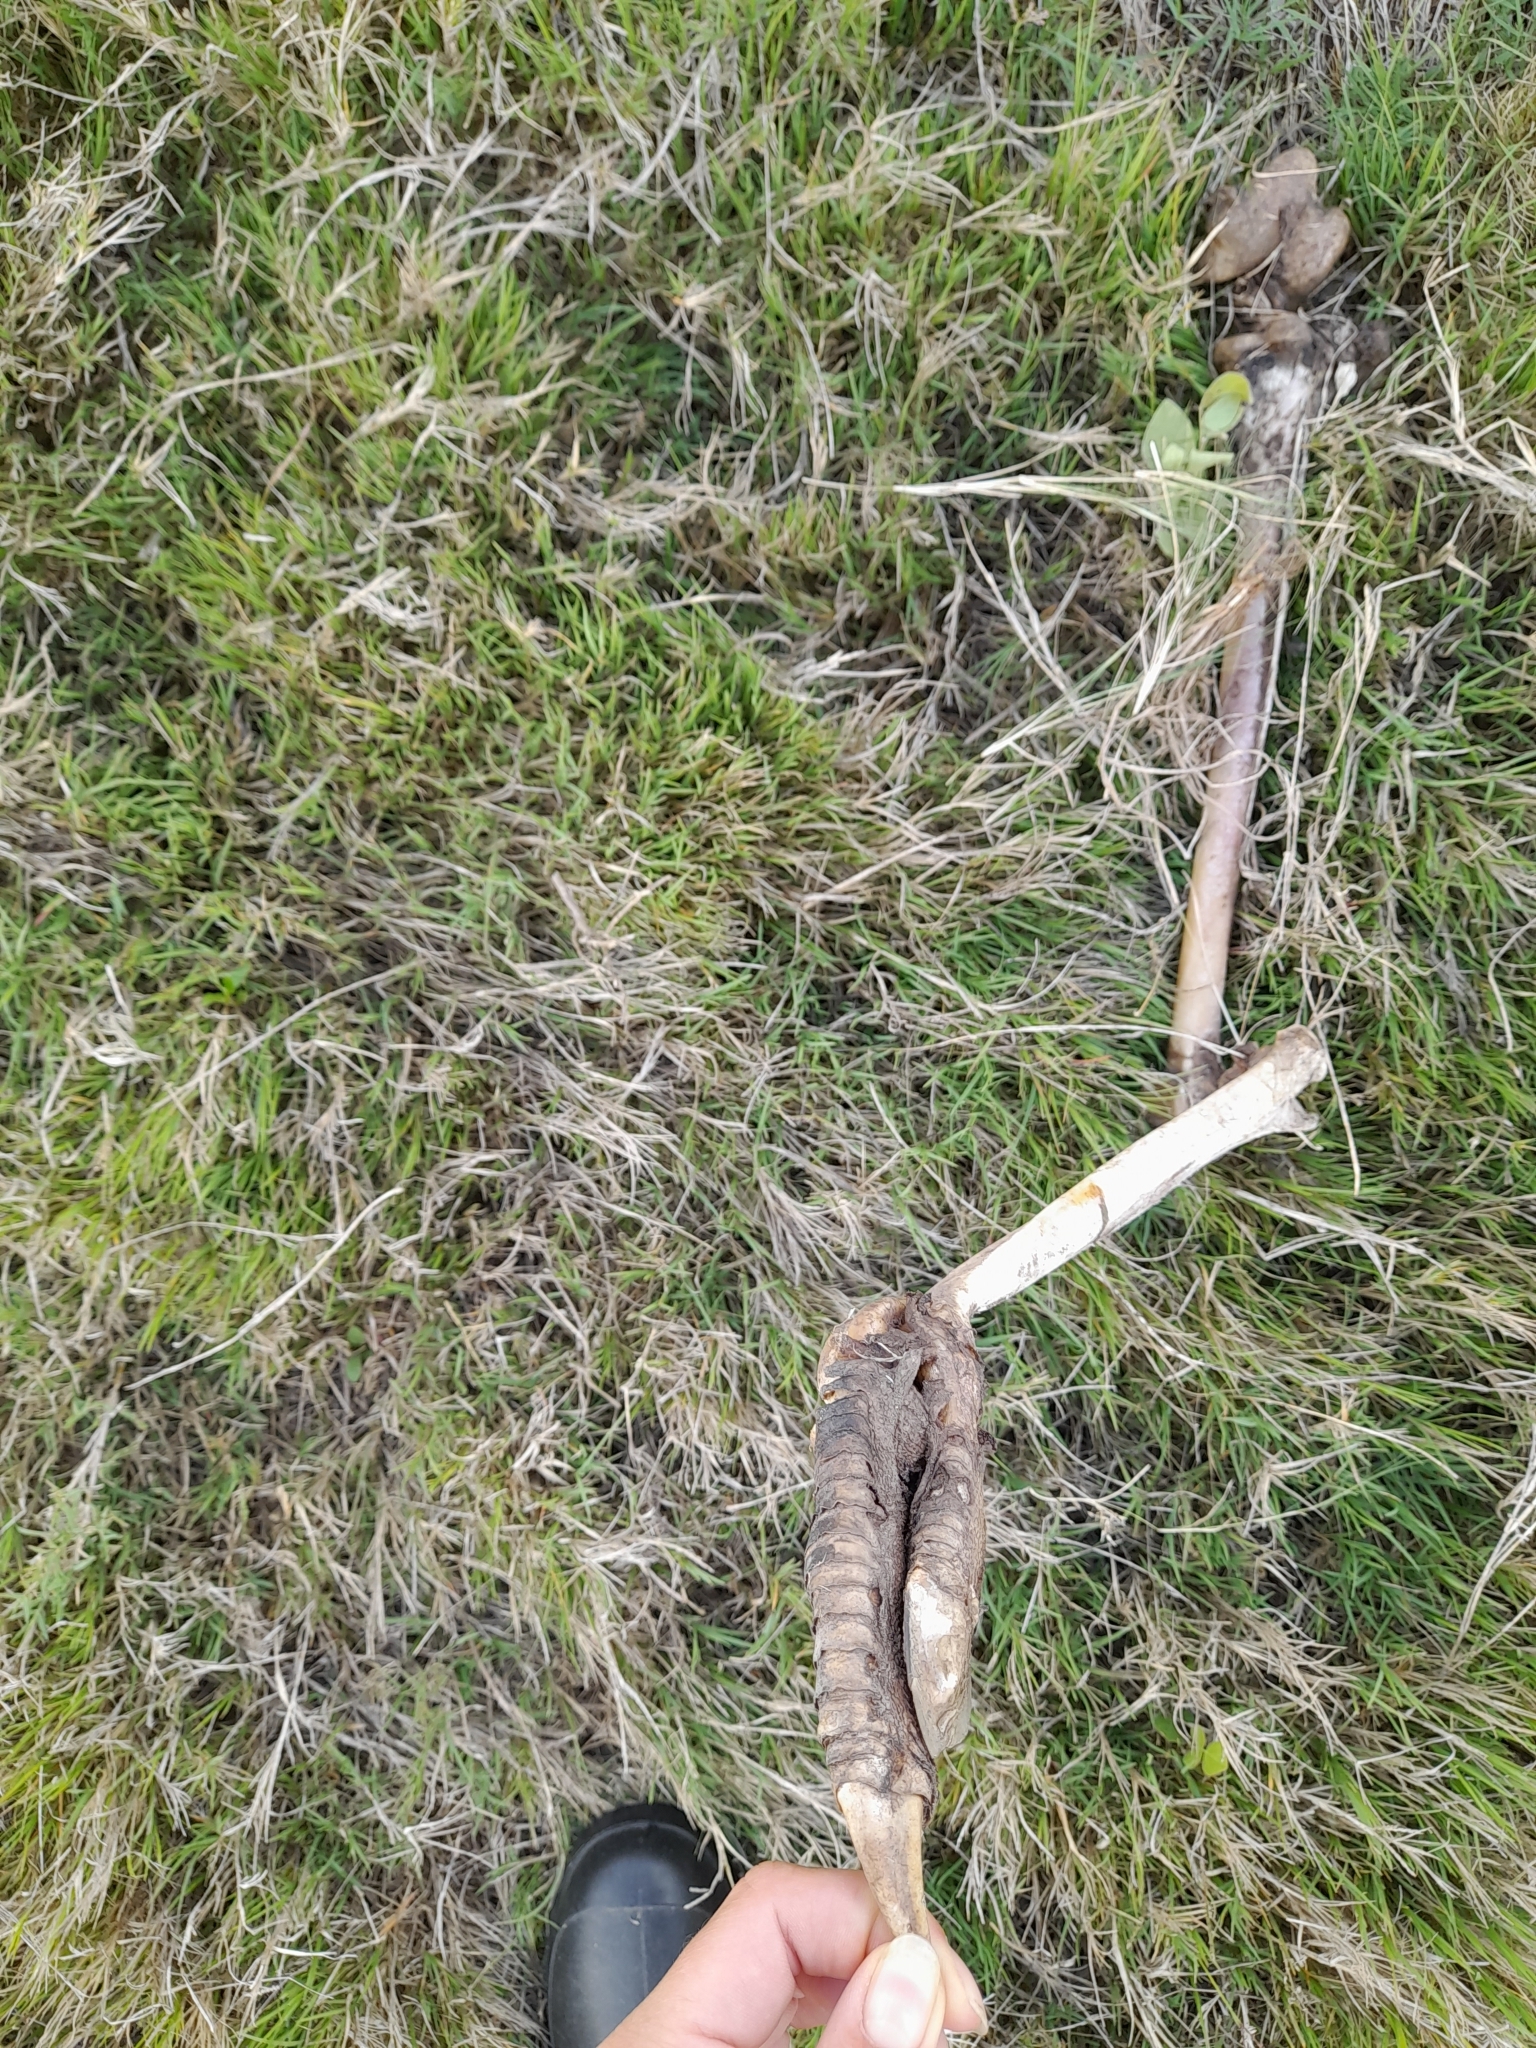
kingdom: Animalia
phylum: Chordata
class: Aves
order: Rheiformes
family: Rheidae
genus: Rhea
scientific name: Rhea americana
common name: Greater rhea
